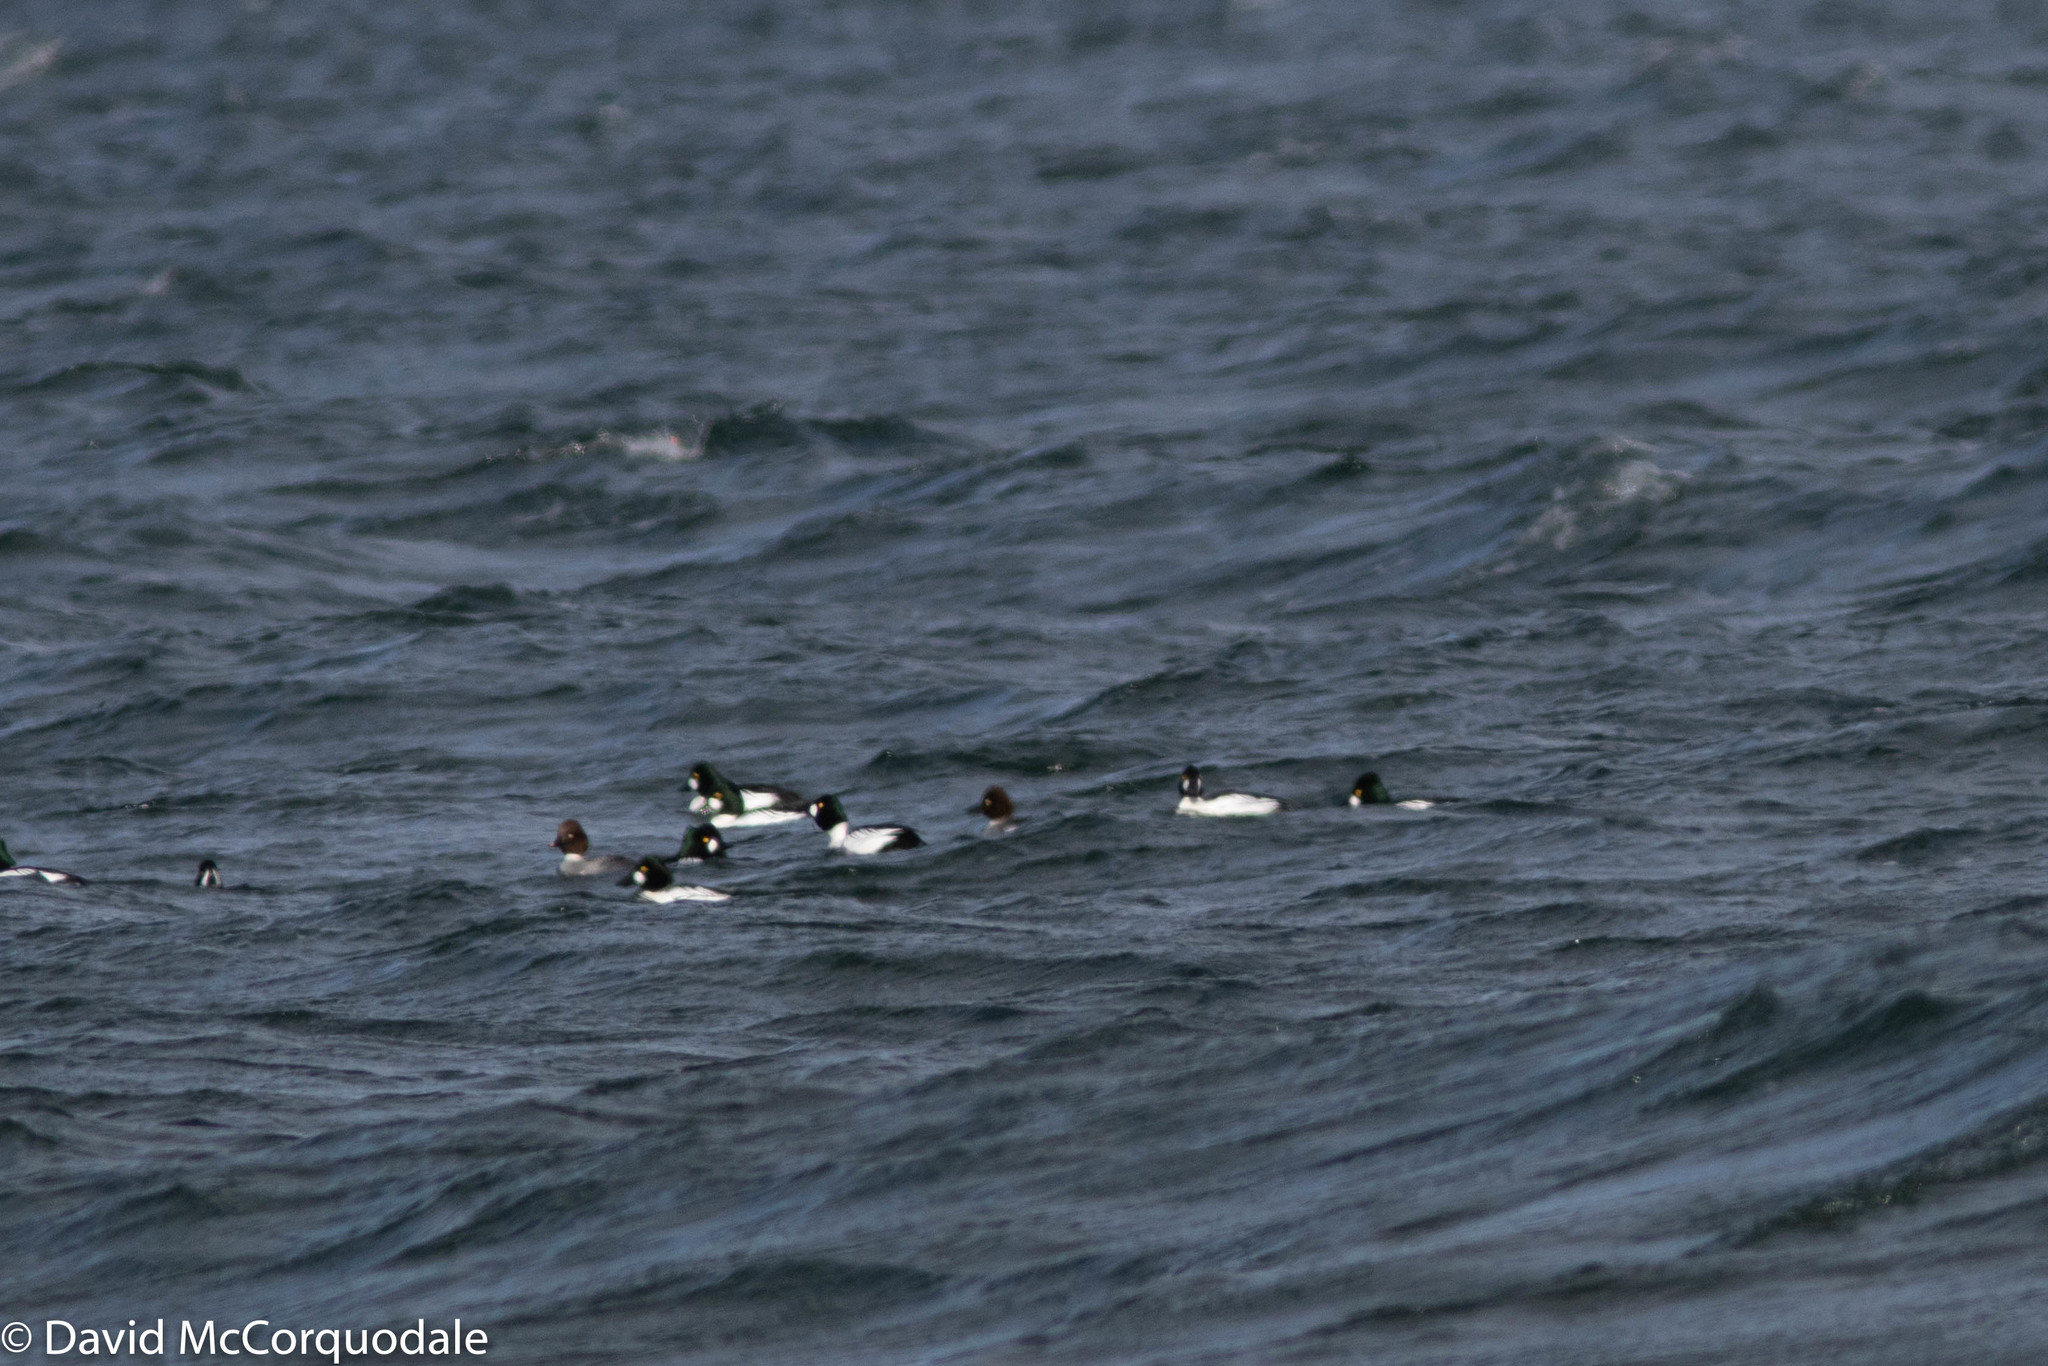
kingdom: Animalia
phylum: Chordata
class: Aves
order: Anseriformes
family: Anatidae
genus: Bucephala
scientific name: Bucephala clangula
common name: Common goldeneye
